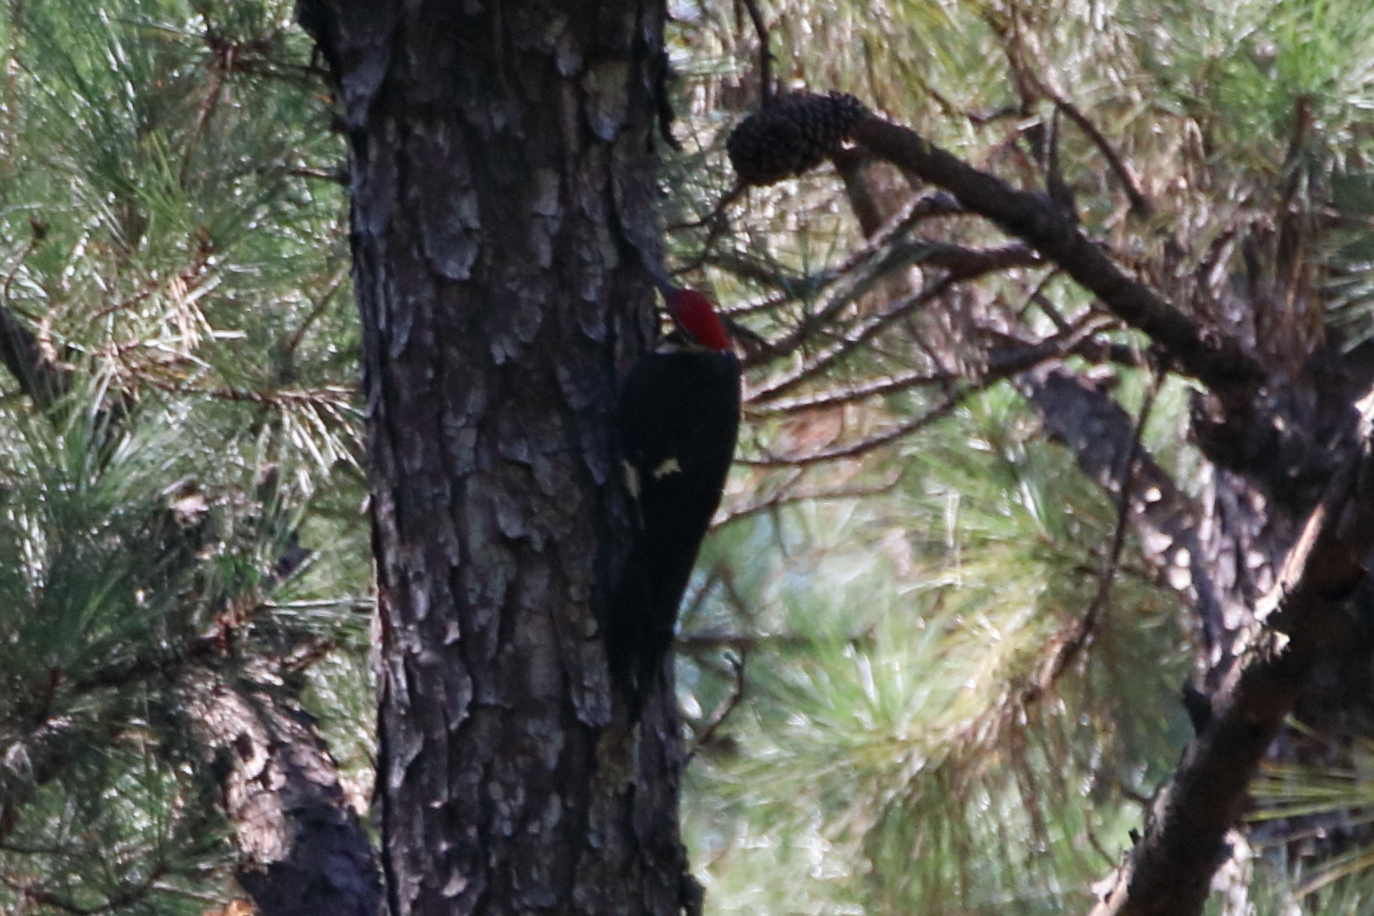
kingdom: Animalia
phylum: Chordata
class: Aves
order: Piciformes
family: Picidae
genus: Dryocopus
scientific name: Dryocopus pileatus
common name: Pileated woodpecker
